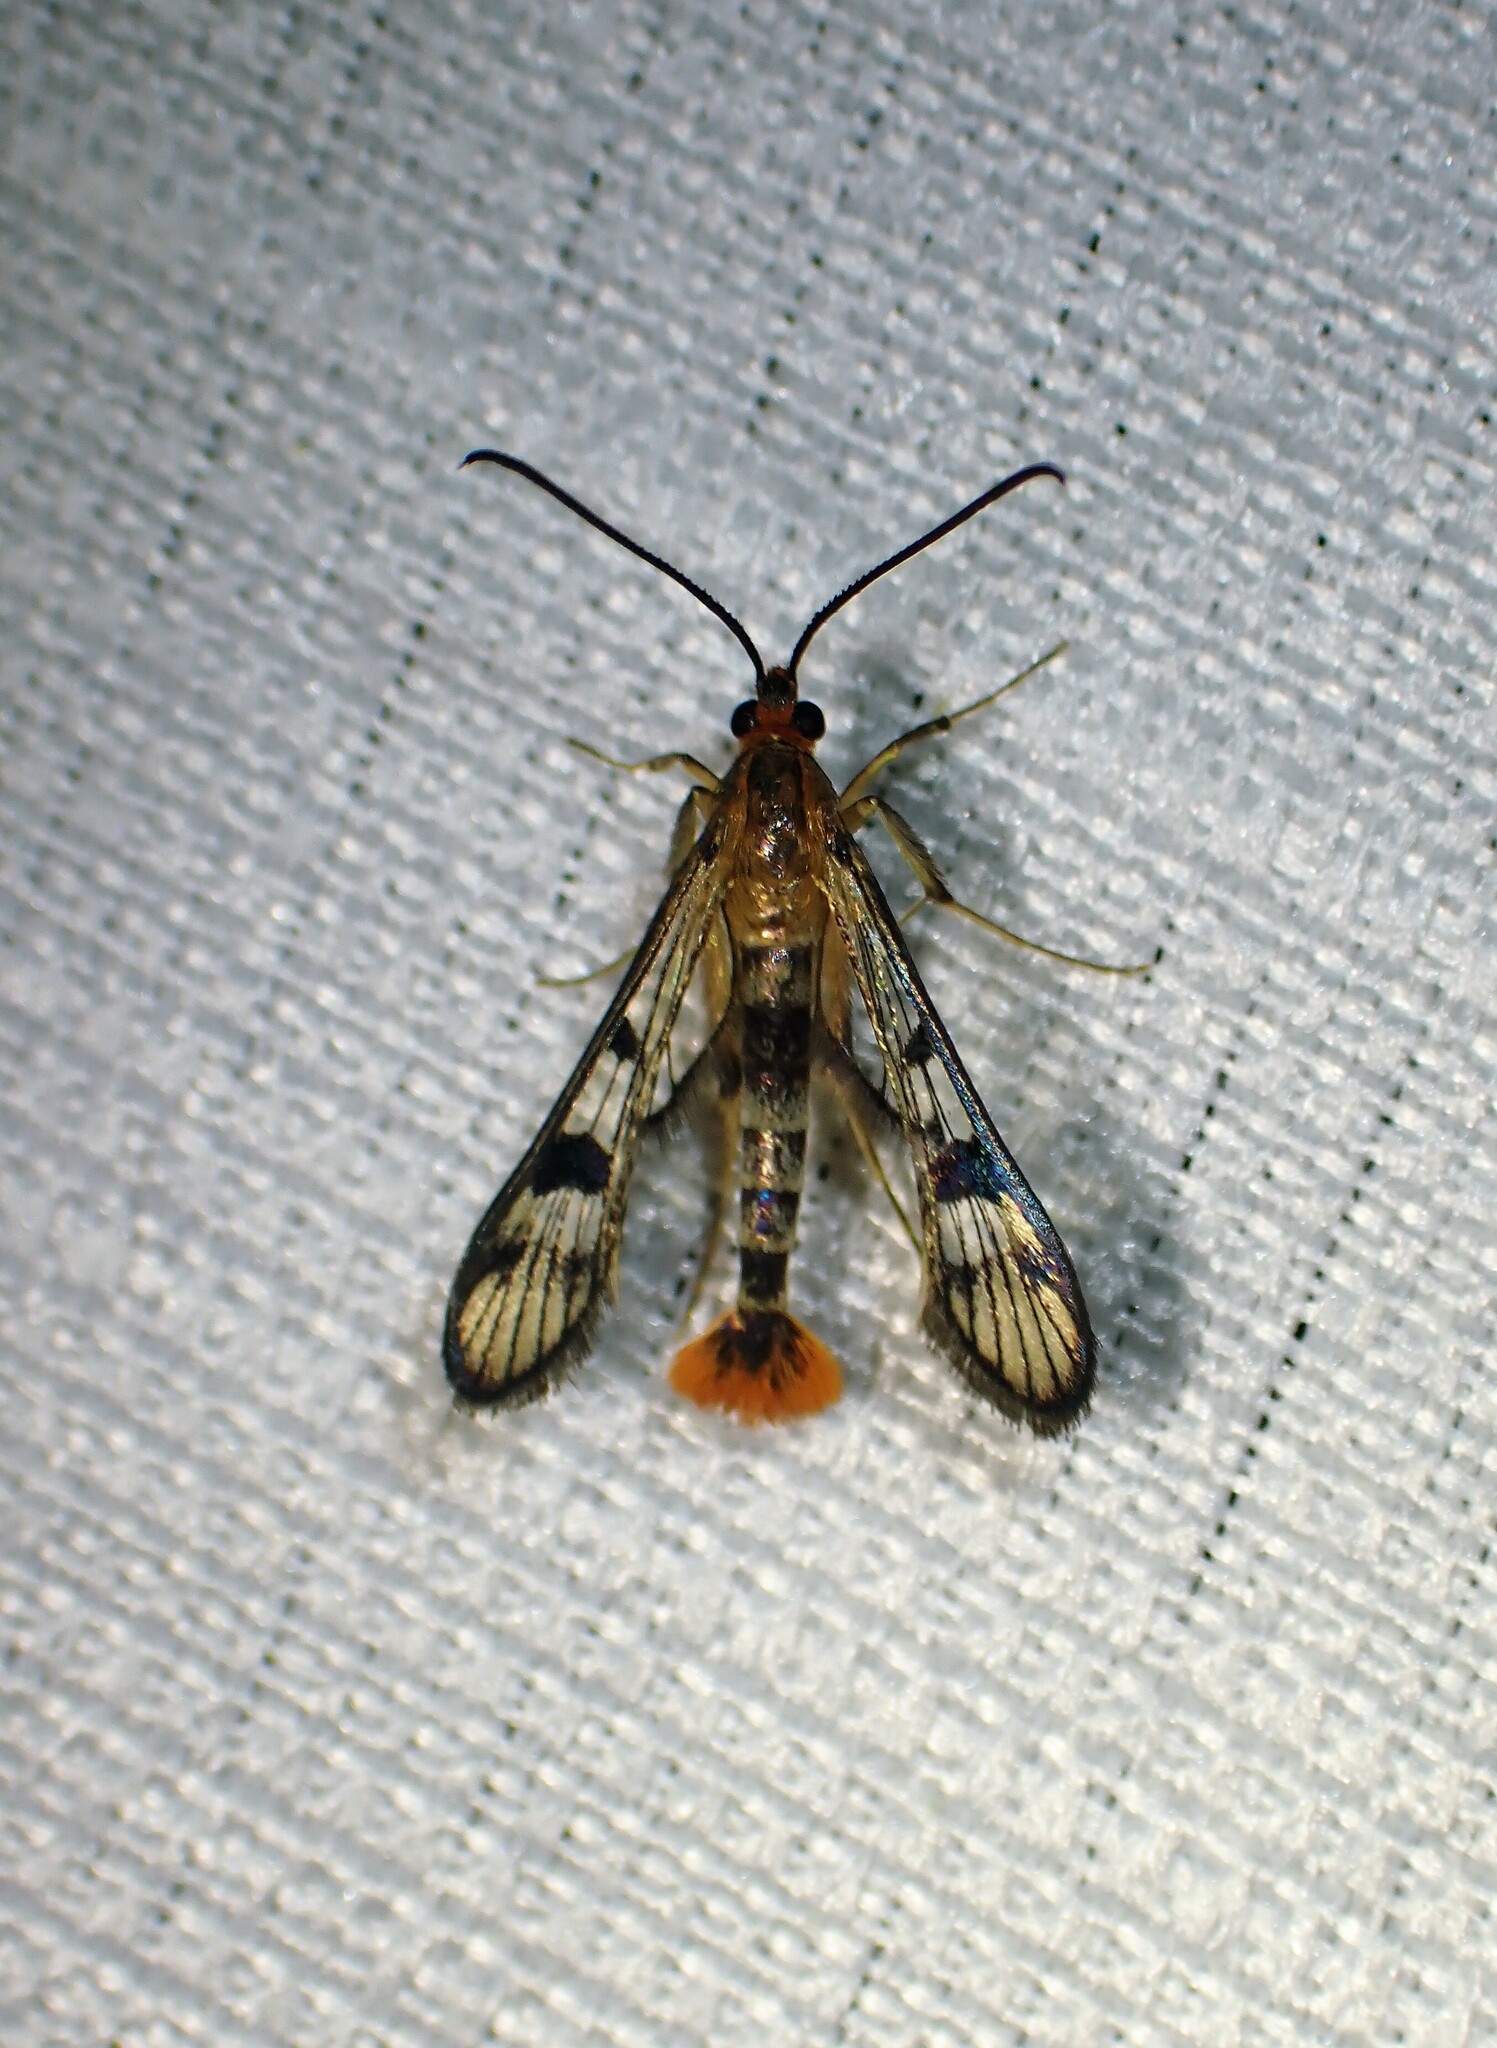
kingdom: Animalia
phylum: Arthropoda
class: Insecta
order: Lepidoptera
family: Sesiidae
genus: Synanthedon
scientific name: Synanthedon acerni
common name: Maple callus borer moth
